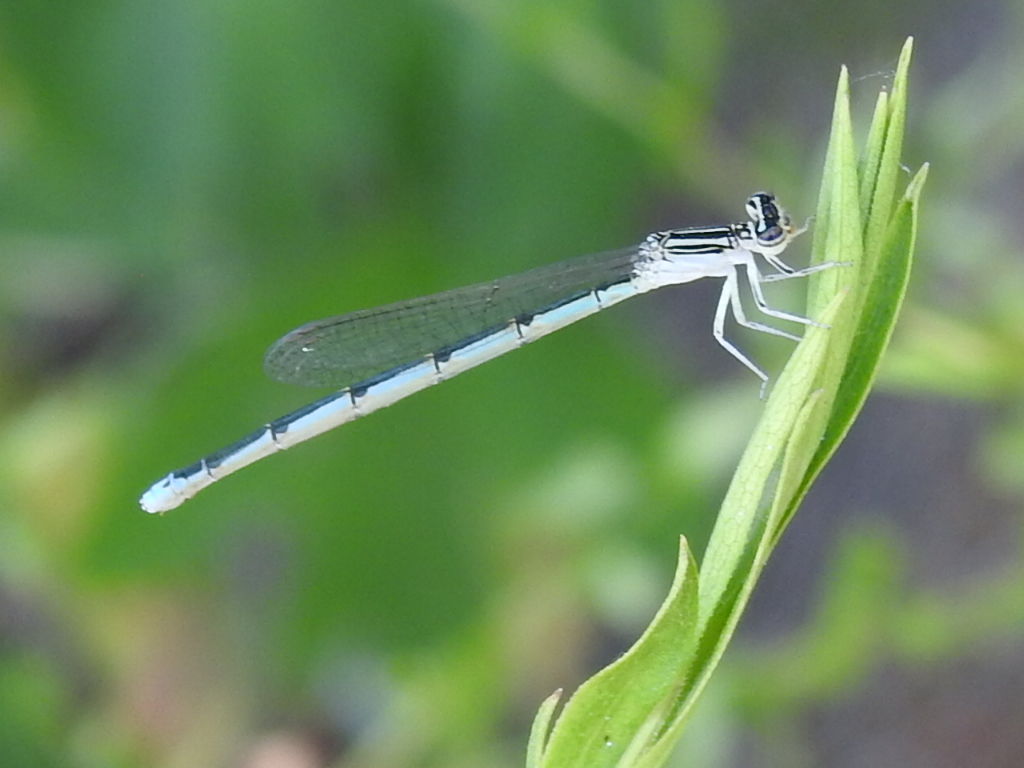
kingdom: Animalia
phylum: Arthropoda
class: Insecta
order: Odonata
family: Coenagrionidae
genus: Enallagma
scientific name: Enallagma basidens
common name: Double-striped bluet
